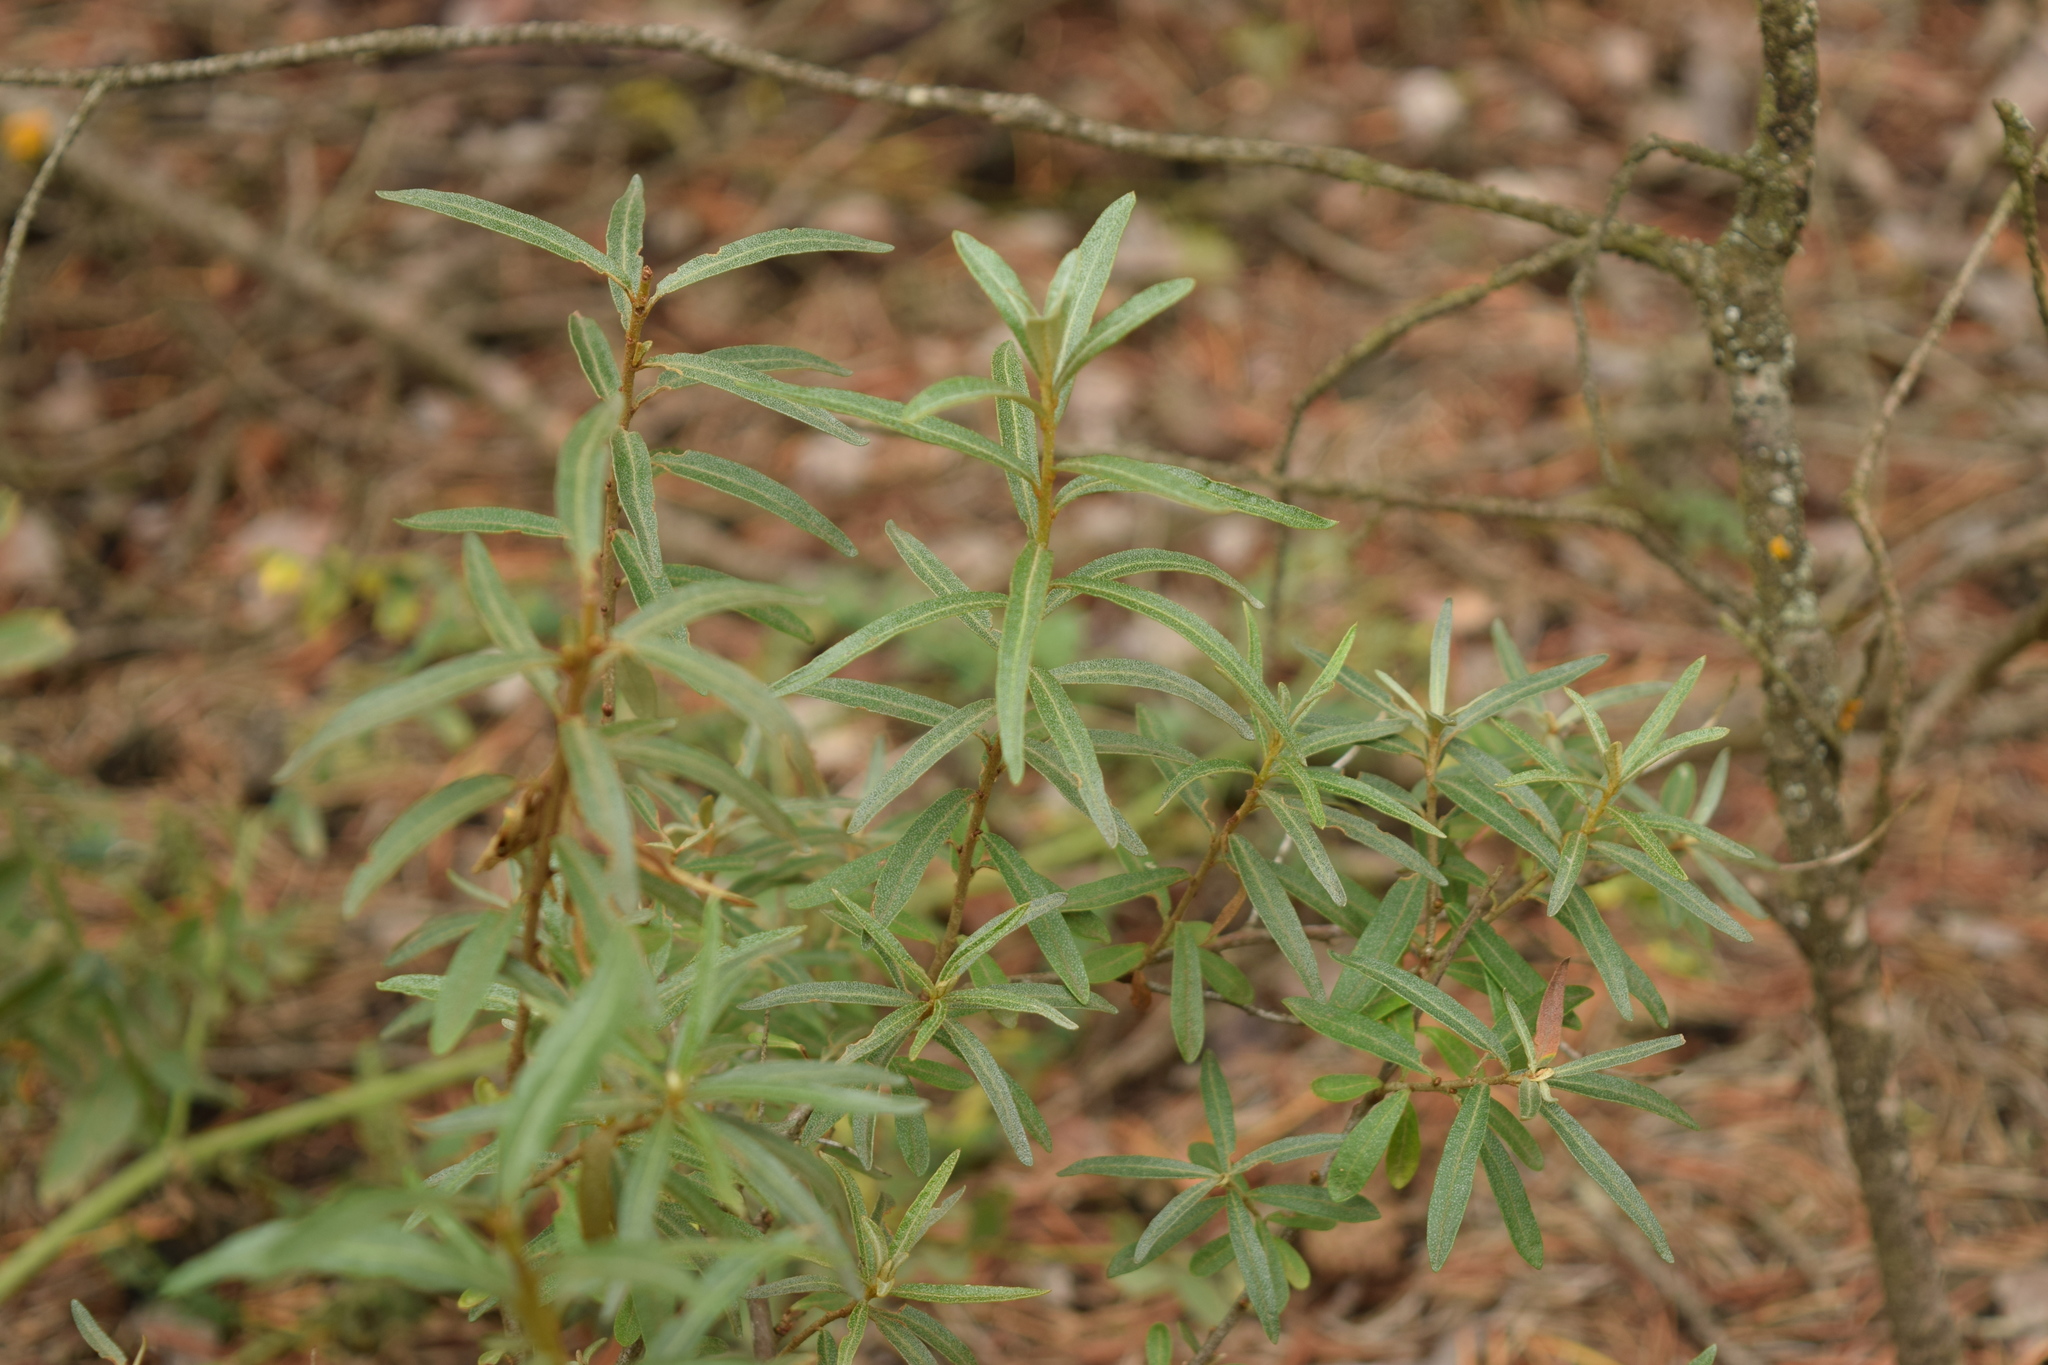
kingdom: Plantae
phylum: Tracheophyta
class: Magnoliopsida
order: Rosales
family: Elaeagnaceae
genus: Hippophae
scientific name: Hippophae rhamnoides
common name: Sea-buckthorn
